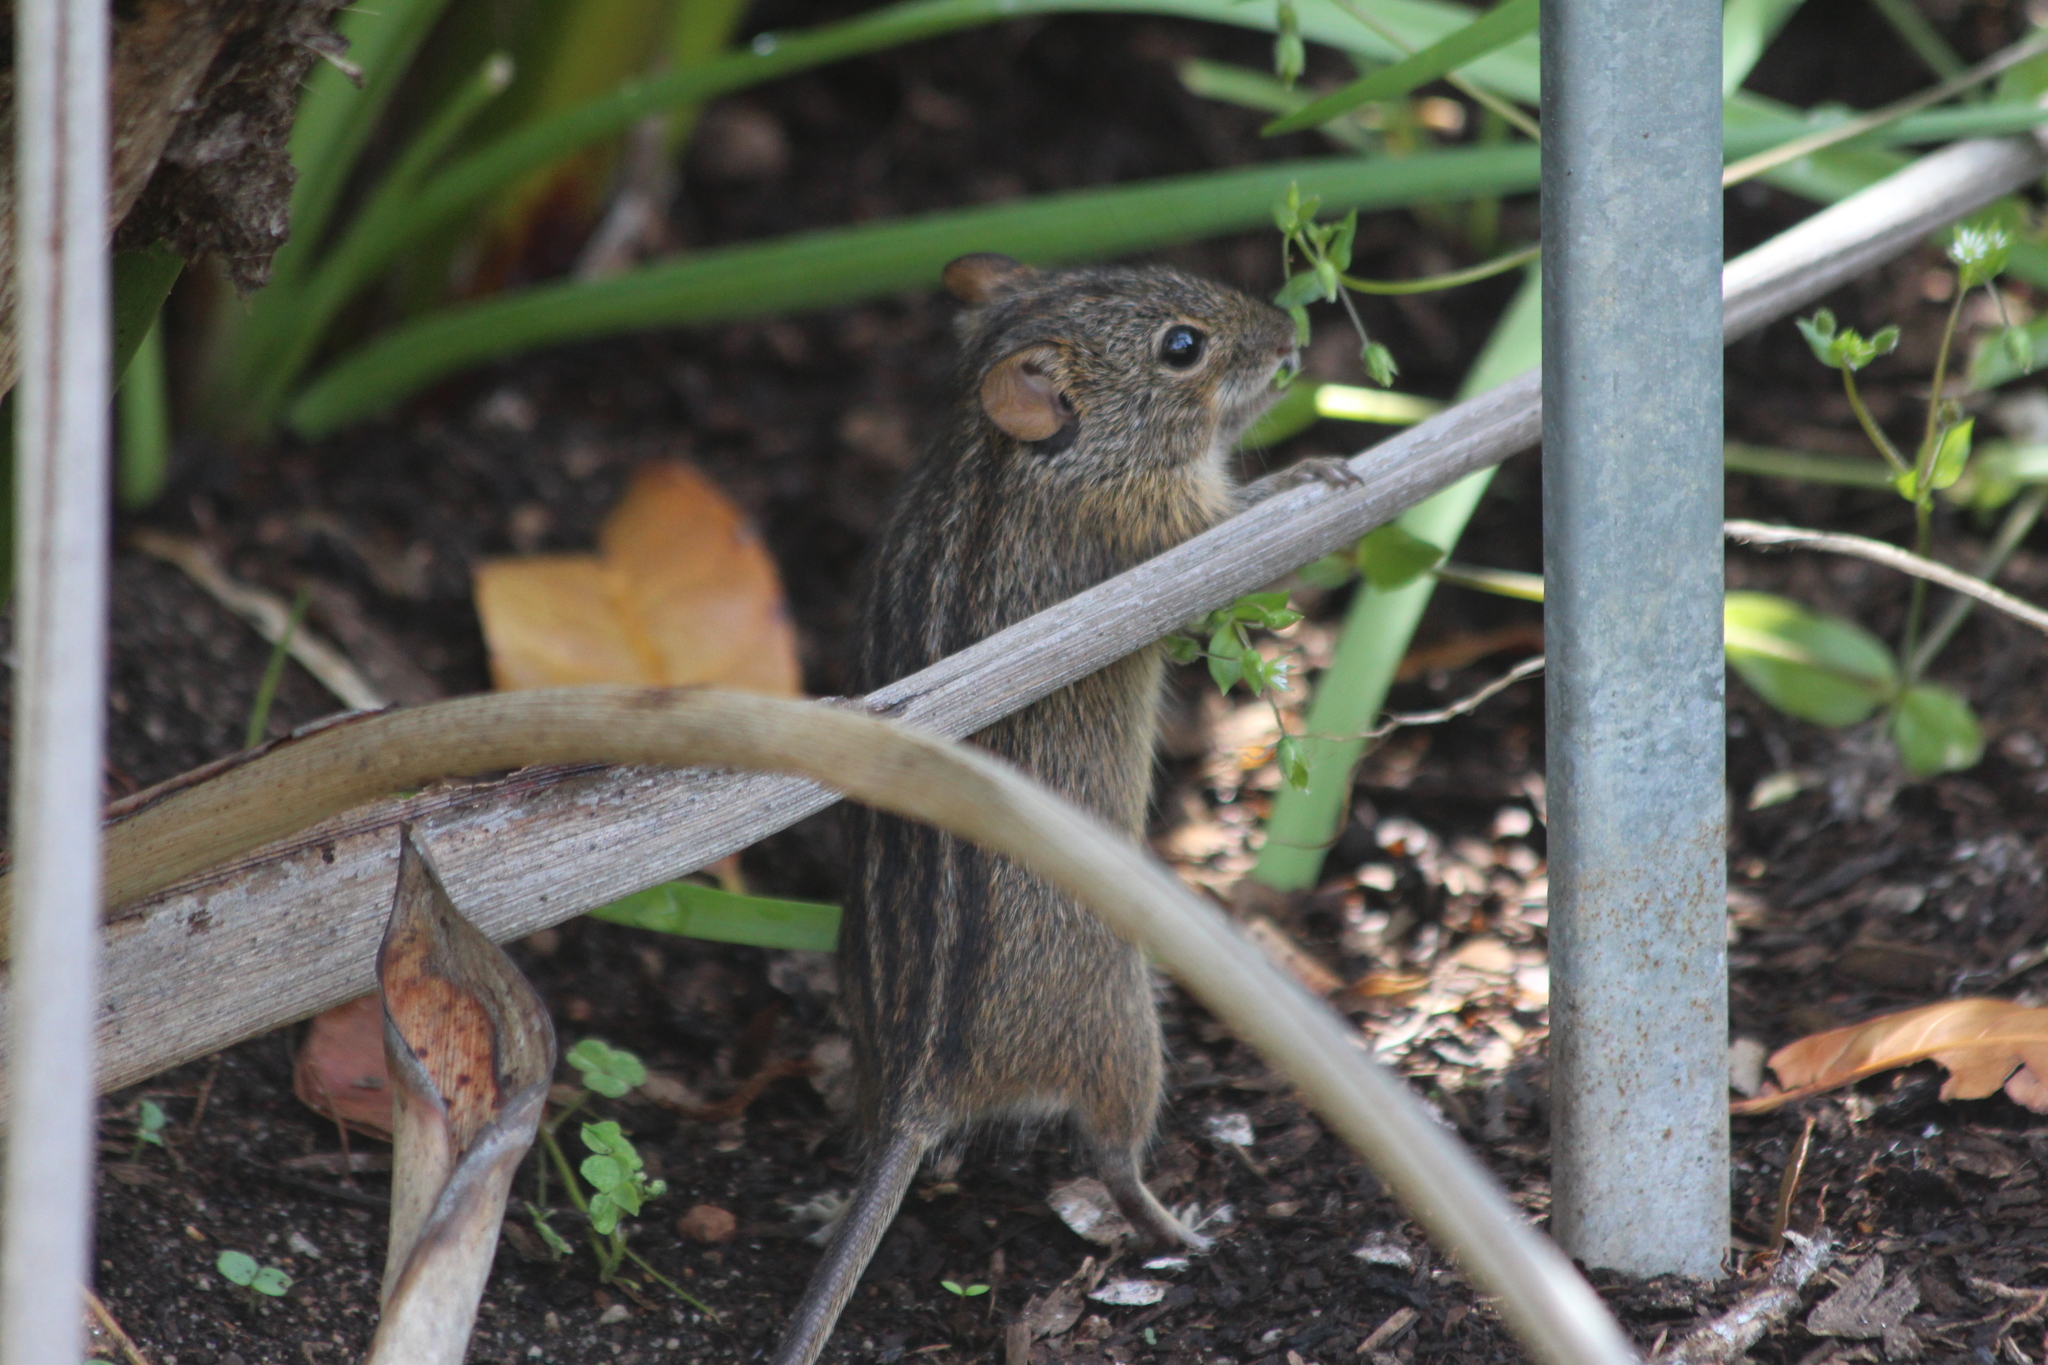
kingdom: Animalia
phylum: Chordata
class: Mammalia
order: Rodentia
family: Muridae
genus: Rhabdomys
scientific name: Rhabdomys pumilio
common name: Xeric four-striped grass rat
